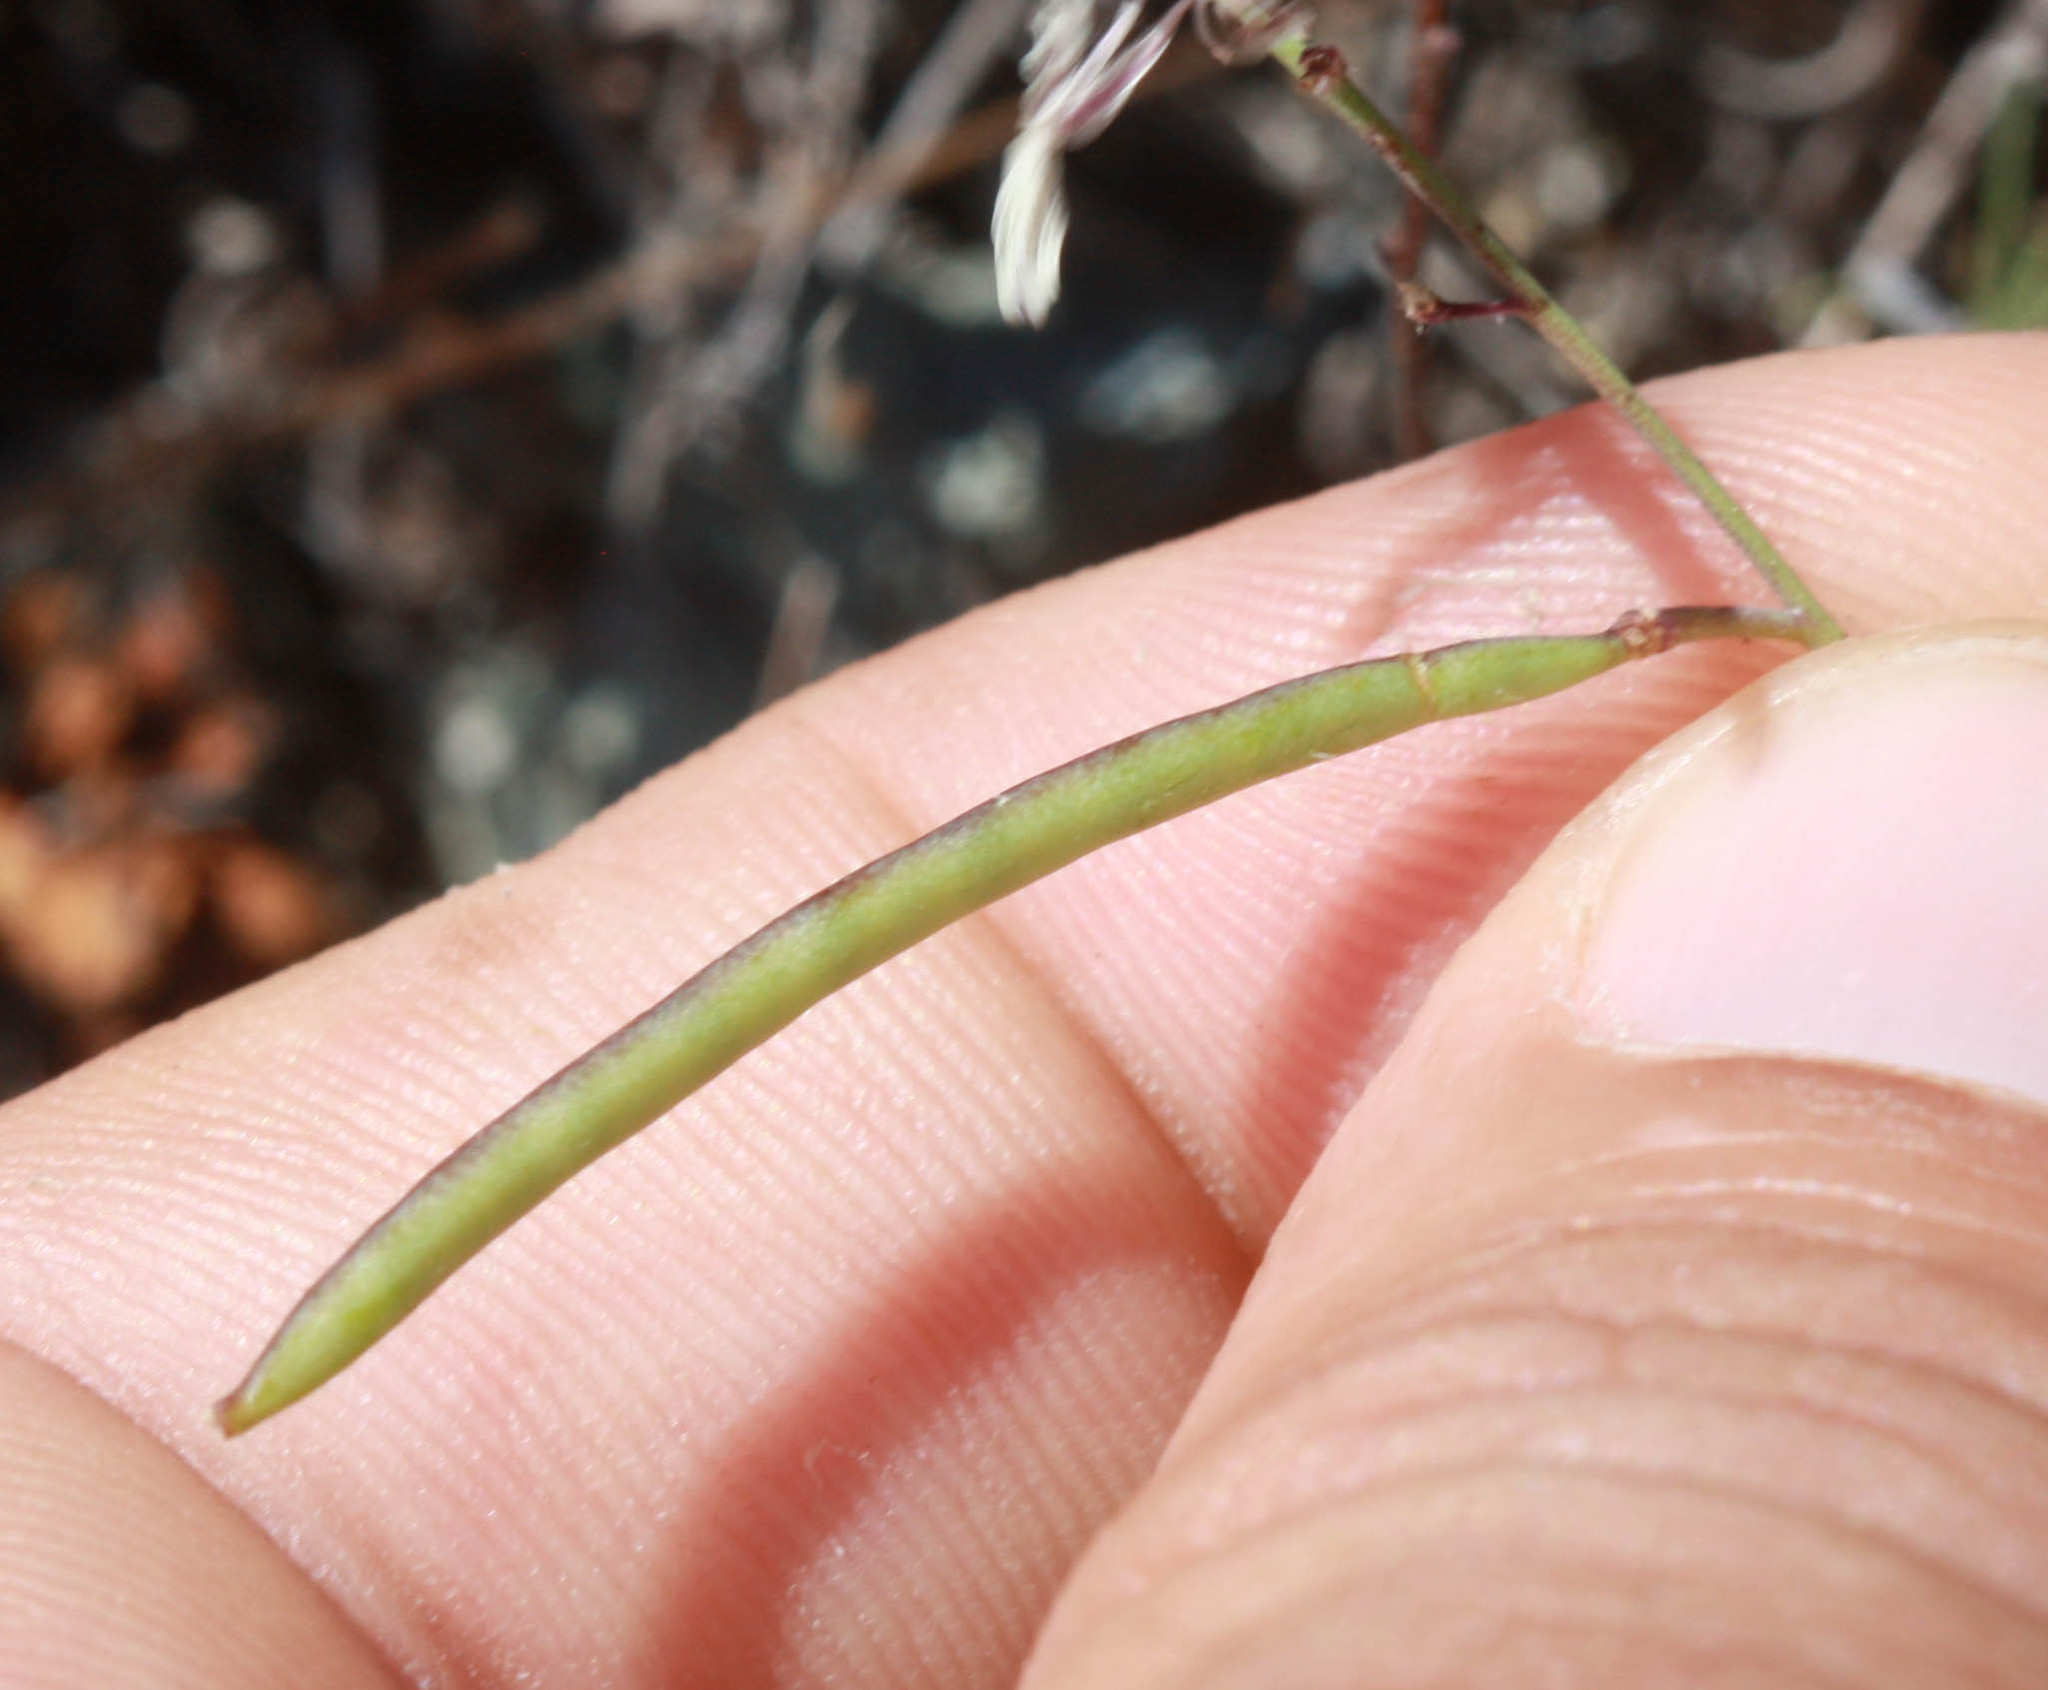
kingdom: Plantae
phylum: Tracheophyta
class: Magnoliopsida
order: Brassicales
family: Brassicaceae
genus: Streptanthus
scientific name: Streptanthus glandulosus
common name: Jewel-flower
